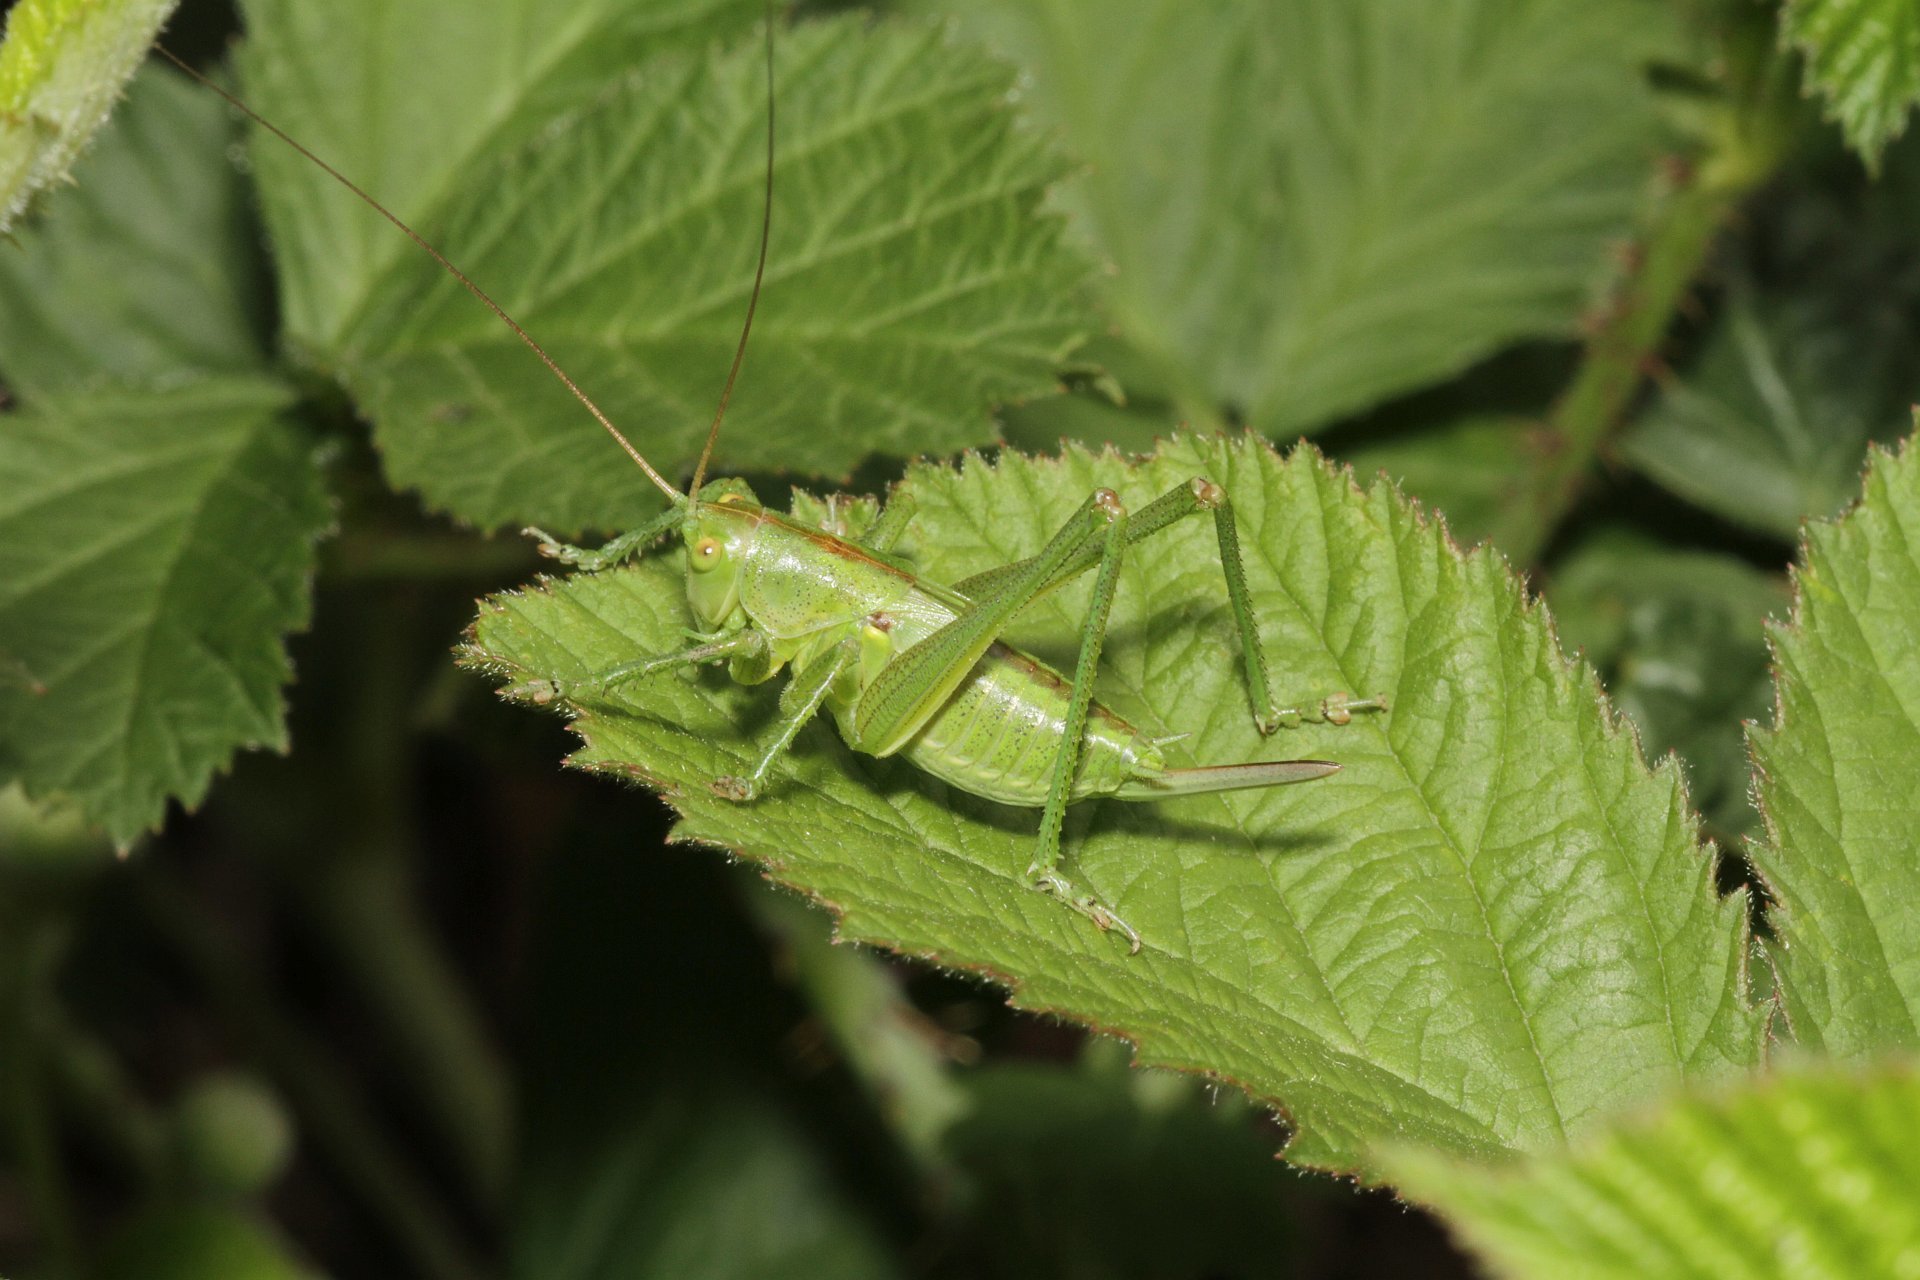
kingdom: Animalia
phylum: Arthropoda
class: Insecta
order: Orthoptera
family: Tettigoniidae
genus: Tettigonia
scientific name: Tettigonia viridissima
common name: Great green bush-cricket
